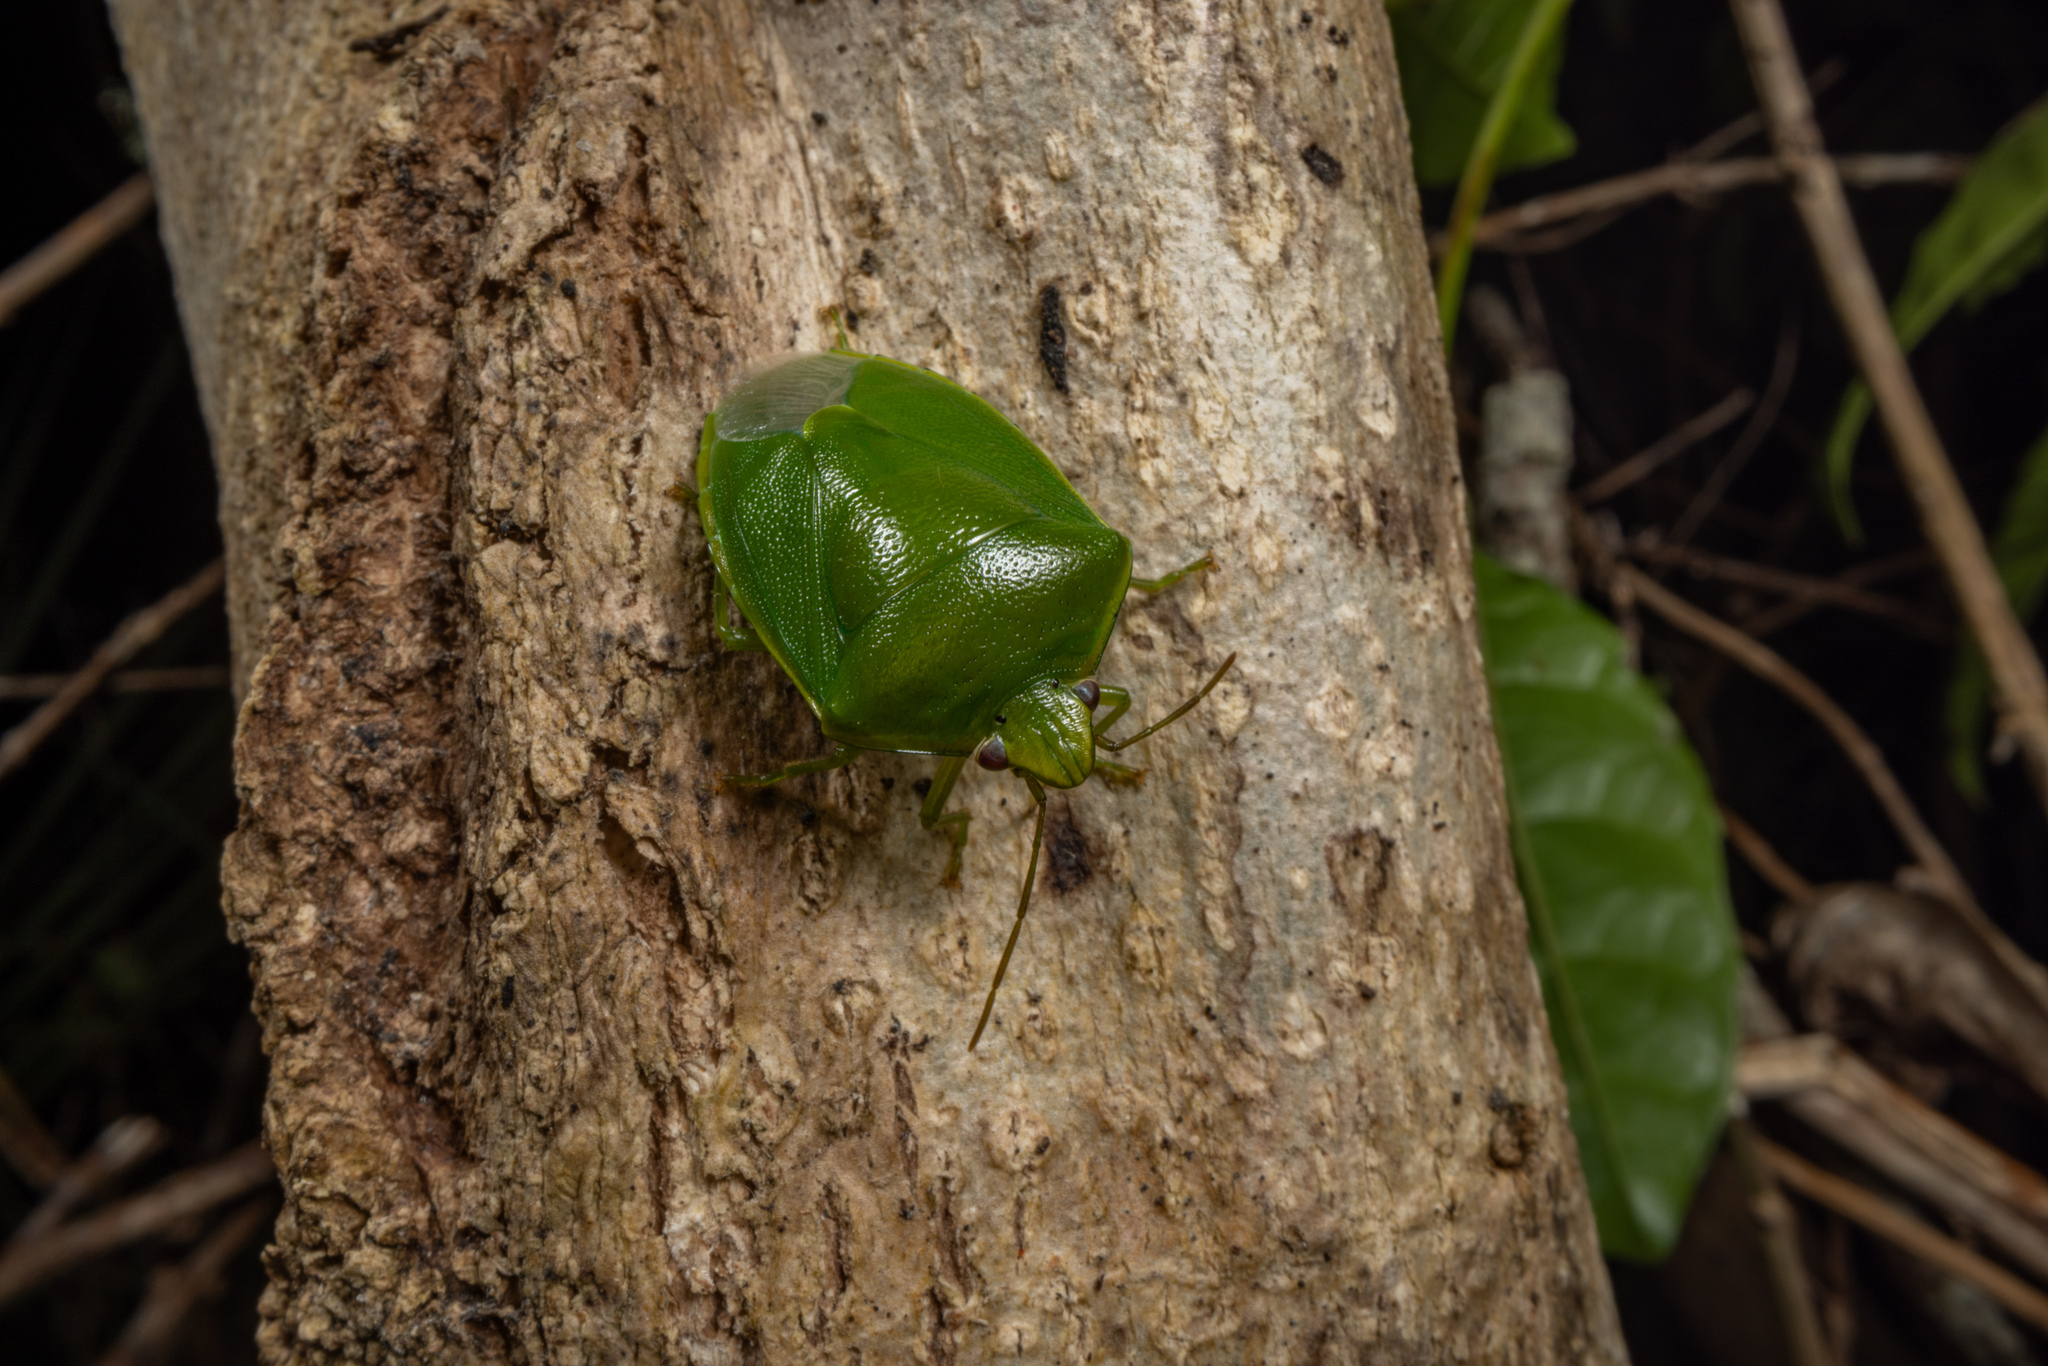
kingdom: Animalia
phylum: Arthropoda
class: Insecta
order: Hemiptera
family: Pentatomidae
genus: Glaucias
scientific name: Glaucias amyota
